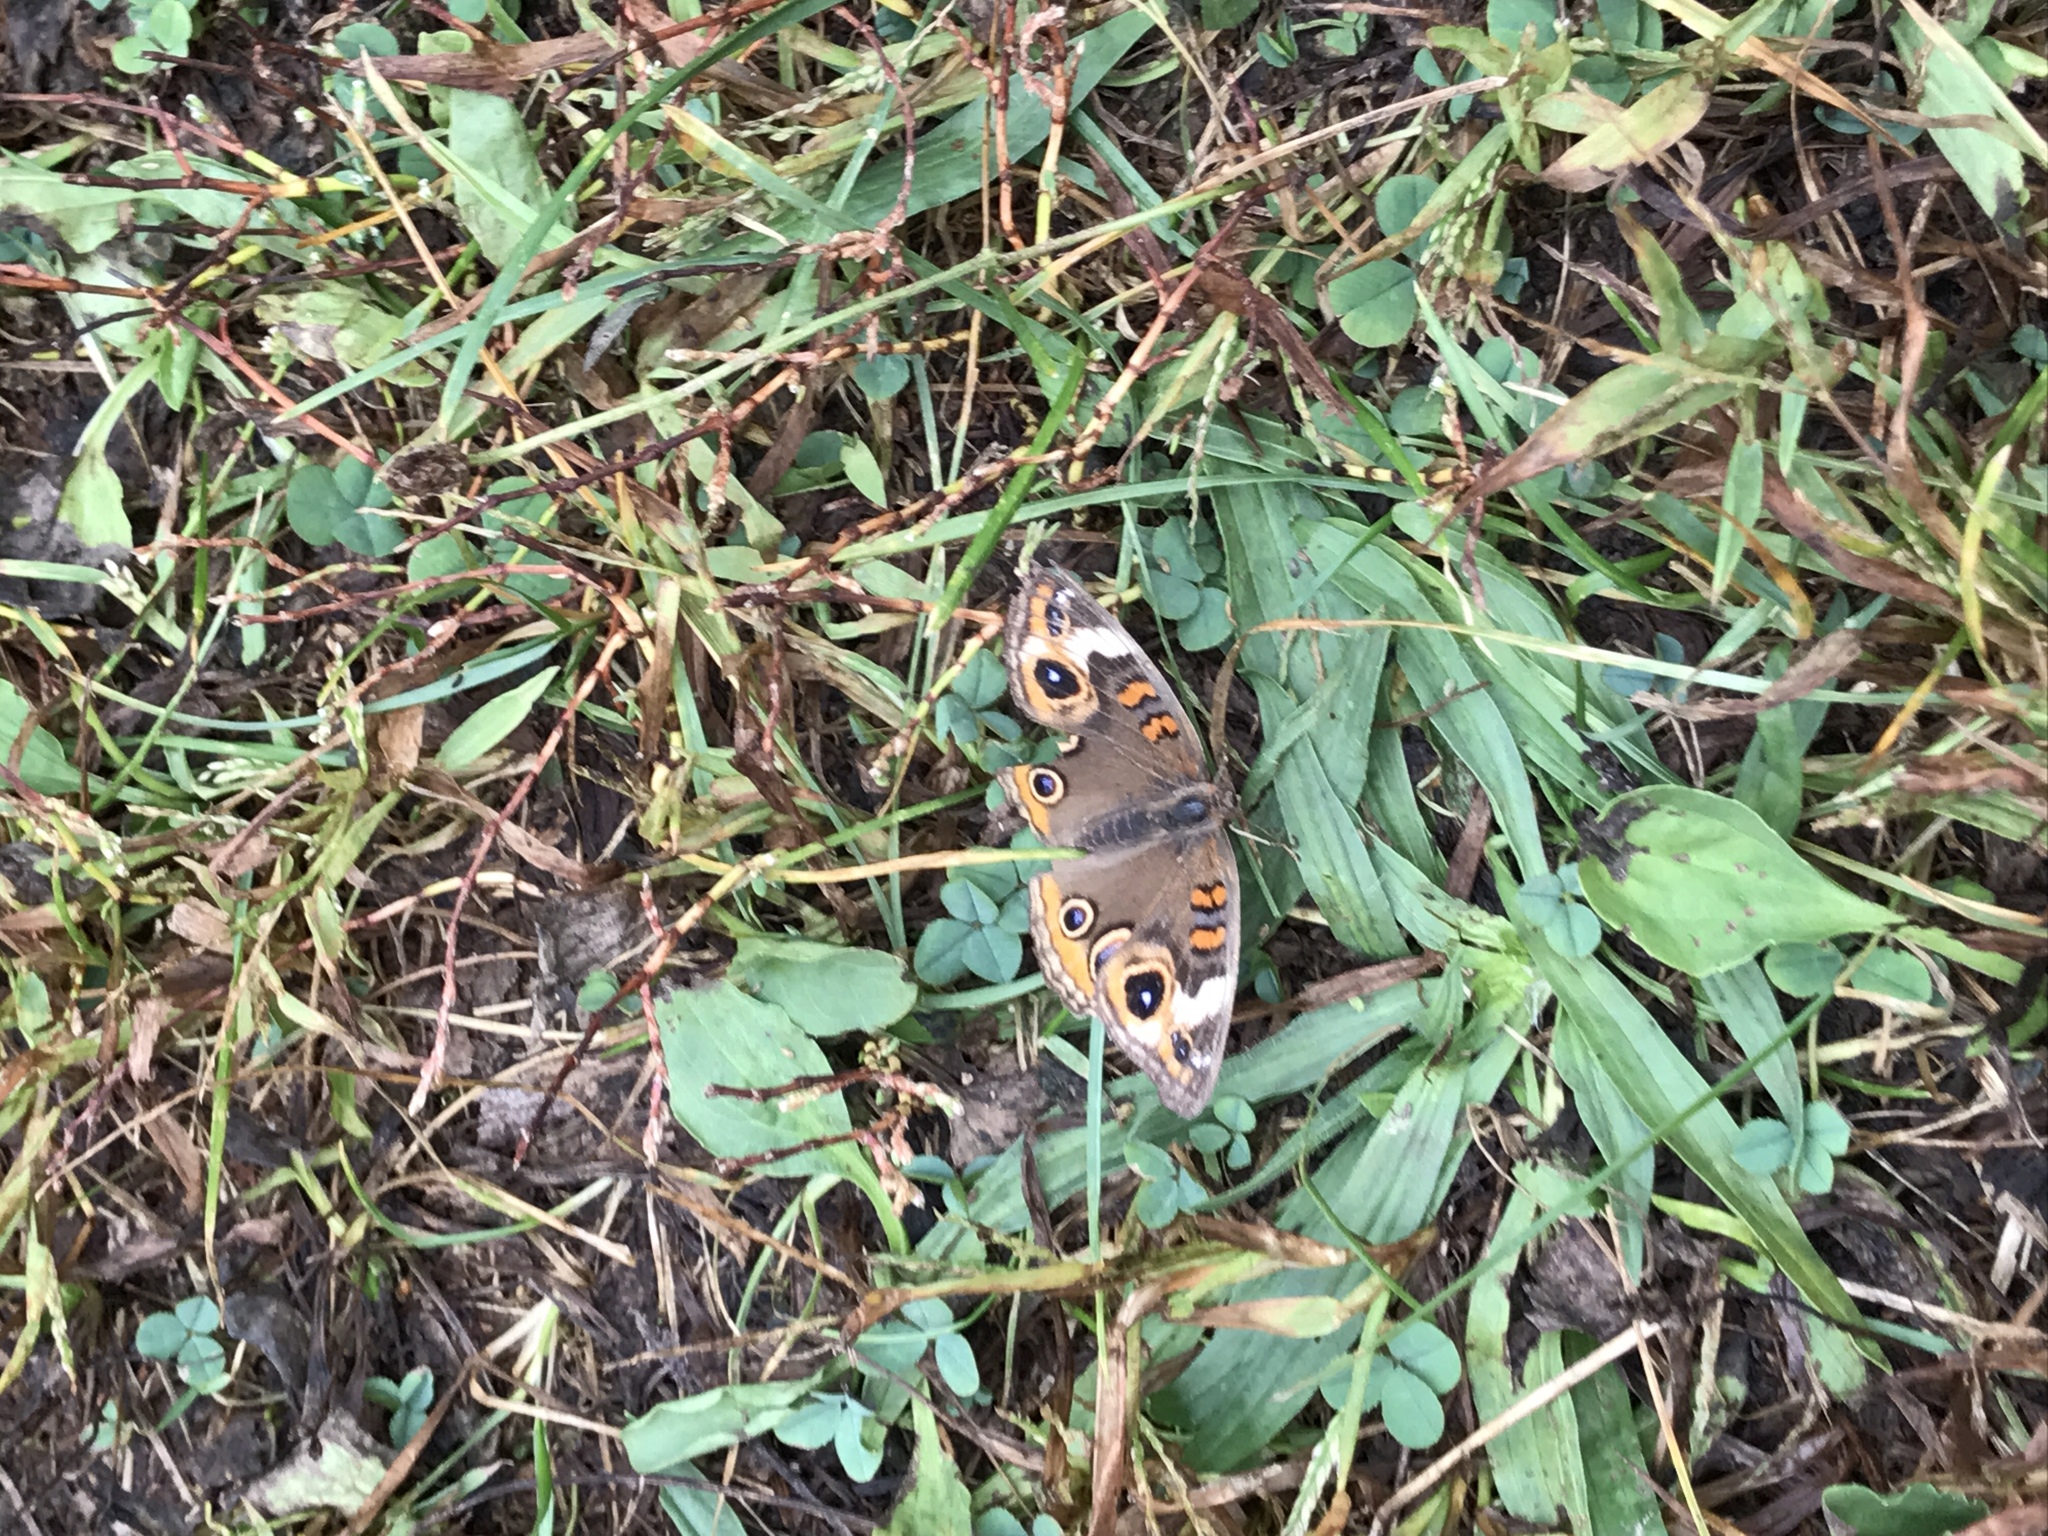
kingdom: Animalia
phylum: Arthropoda
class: Insecta
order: Lepidoptera
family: Nymphalidae
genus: Junonia
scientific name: Junonia coenia
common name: Common buckeye
